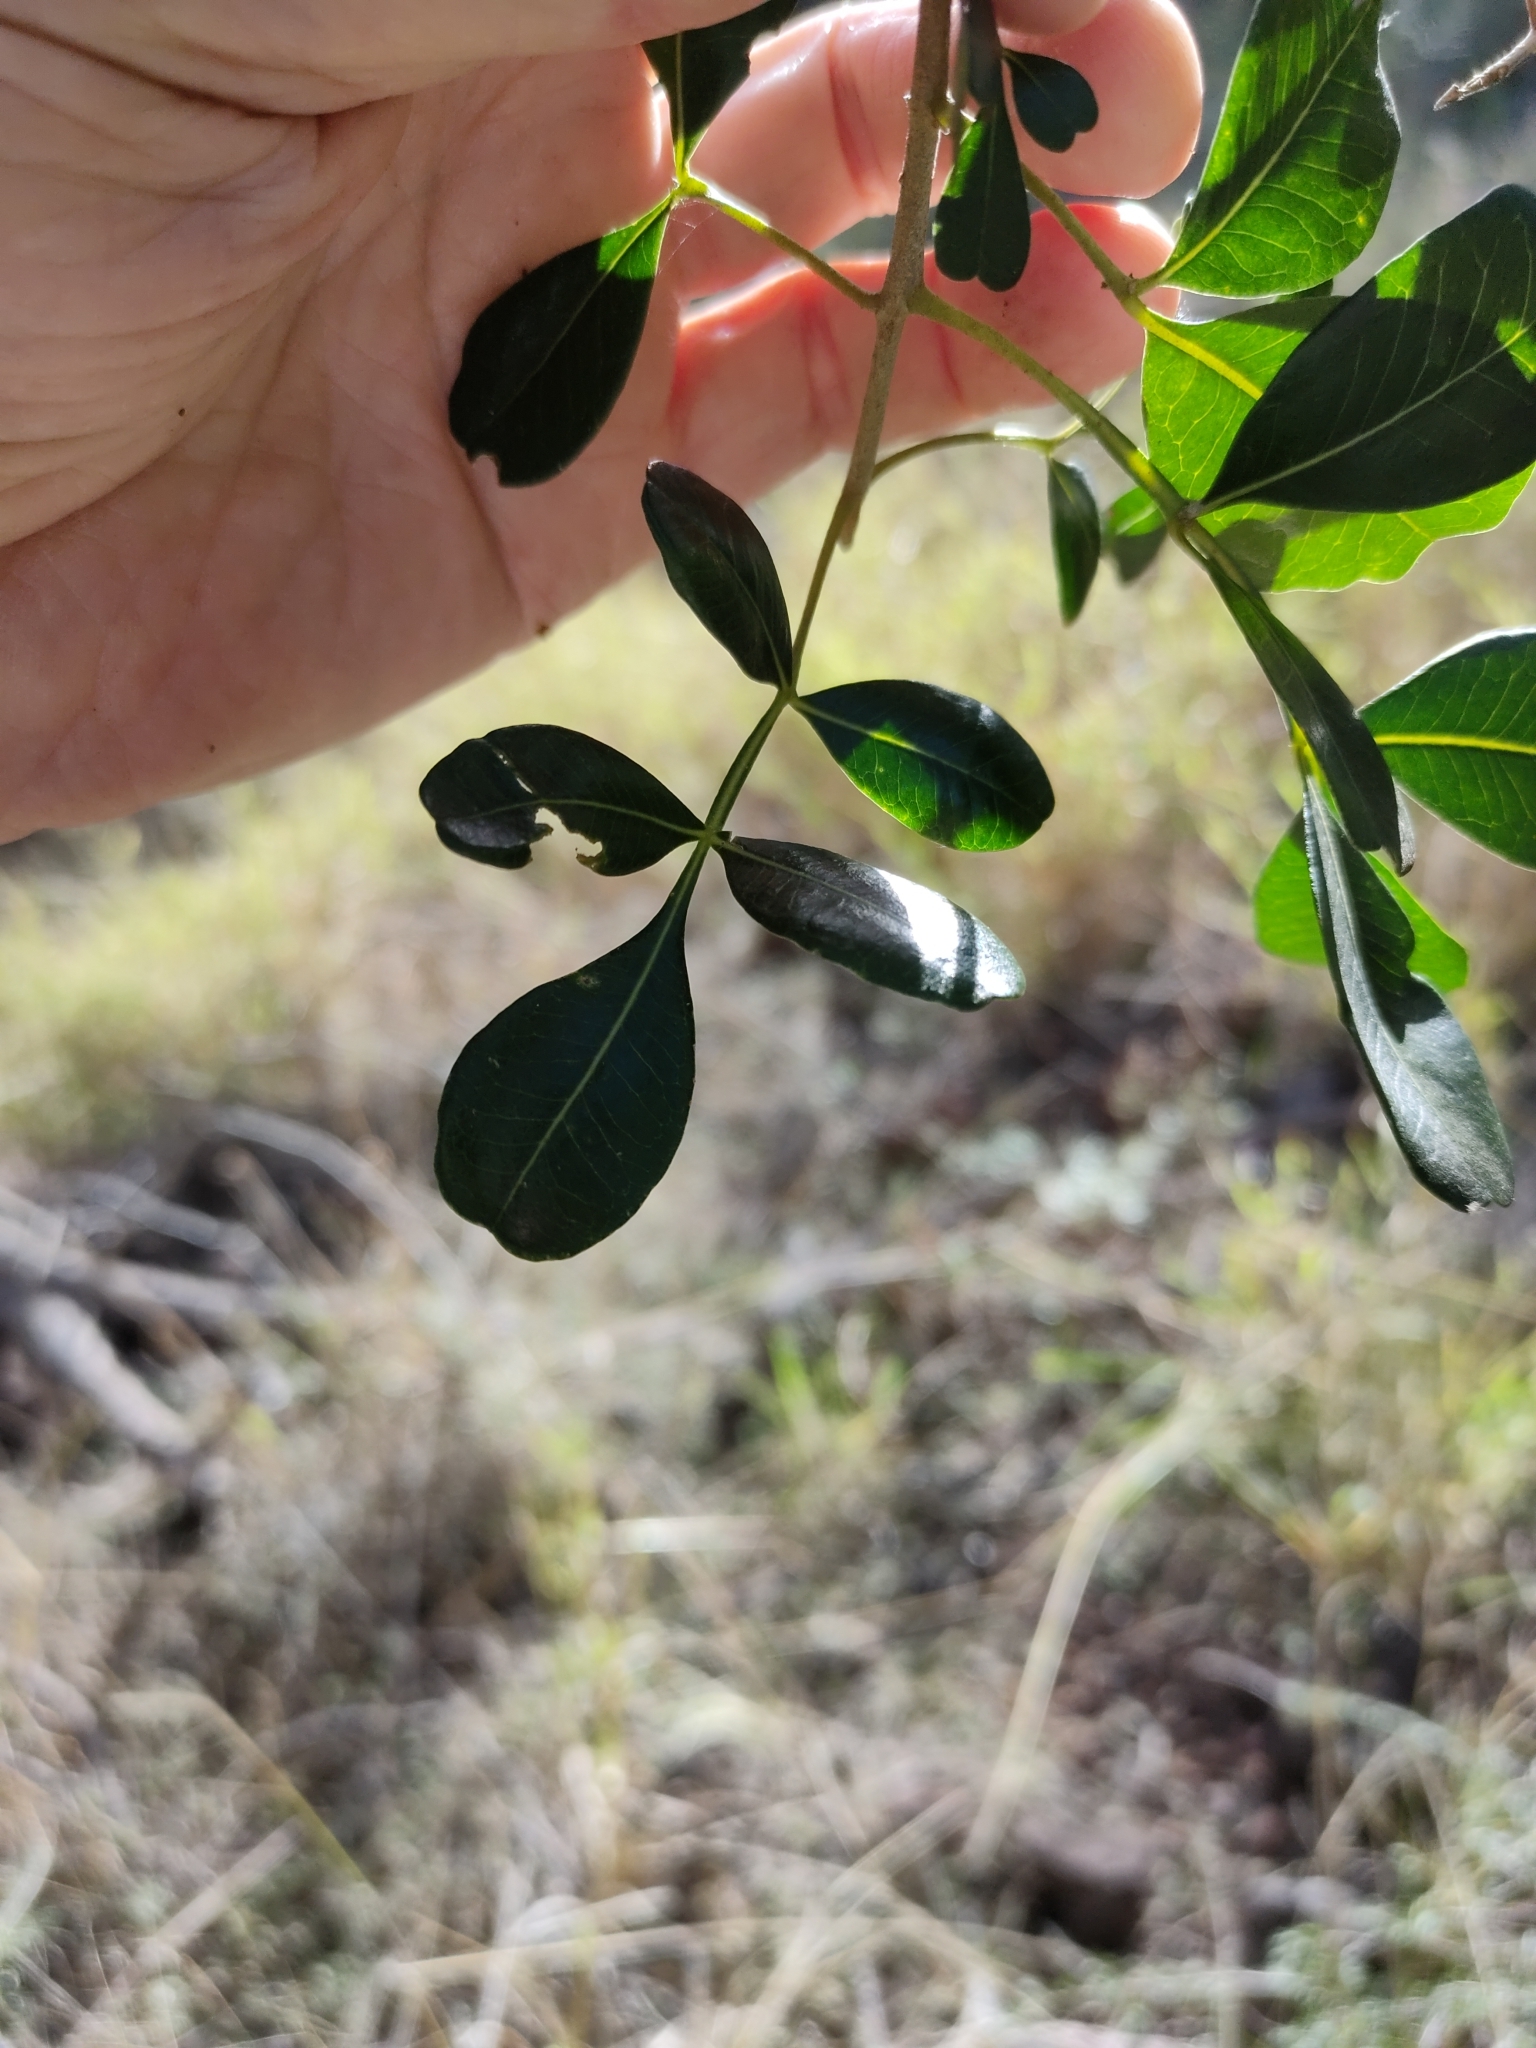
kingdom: Plantae
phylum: Tracheophyta
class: Magnoliopsida
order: Sapindales
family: Rutaceae
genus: Flindersia
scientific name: Flindersia collina
